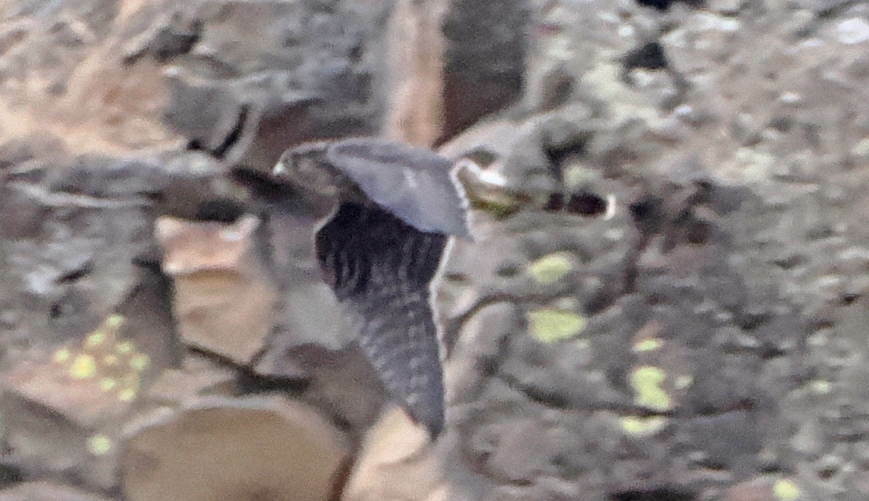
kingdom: Animalia
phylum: Chordata
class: Aves
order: Falconiformes
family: Falconidae
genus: Falco
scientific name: Falco columbarius
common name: Merlin
